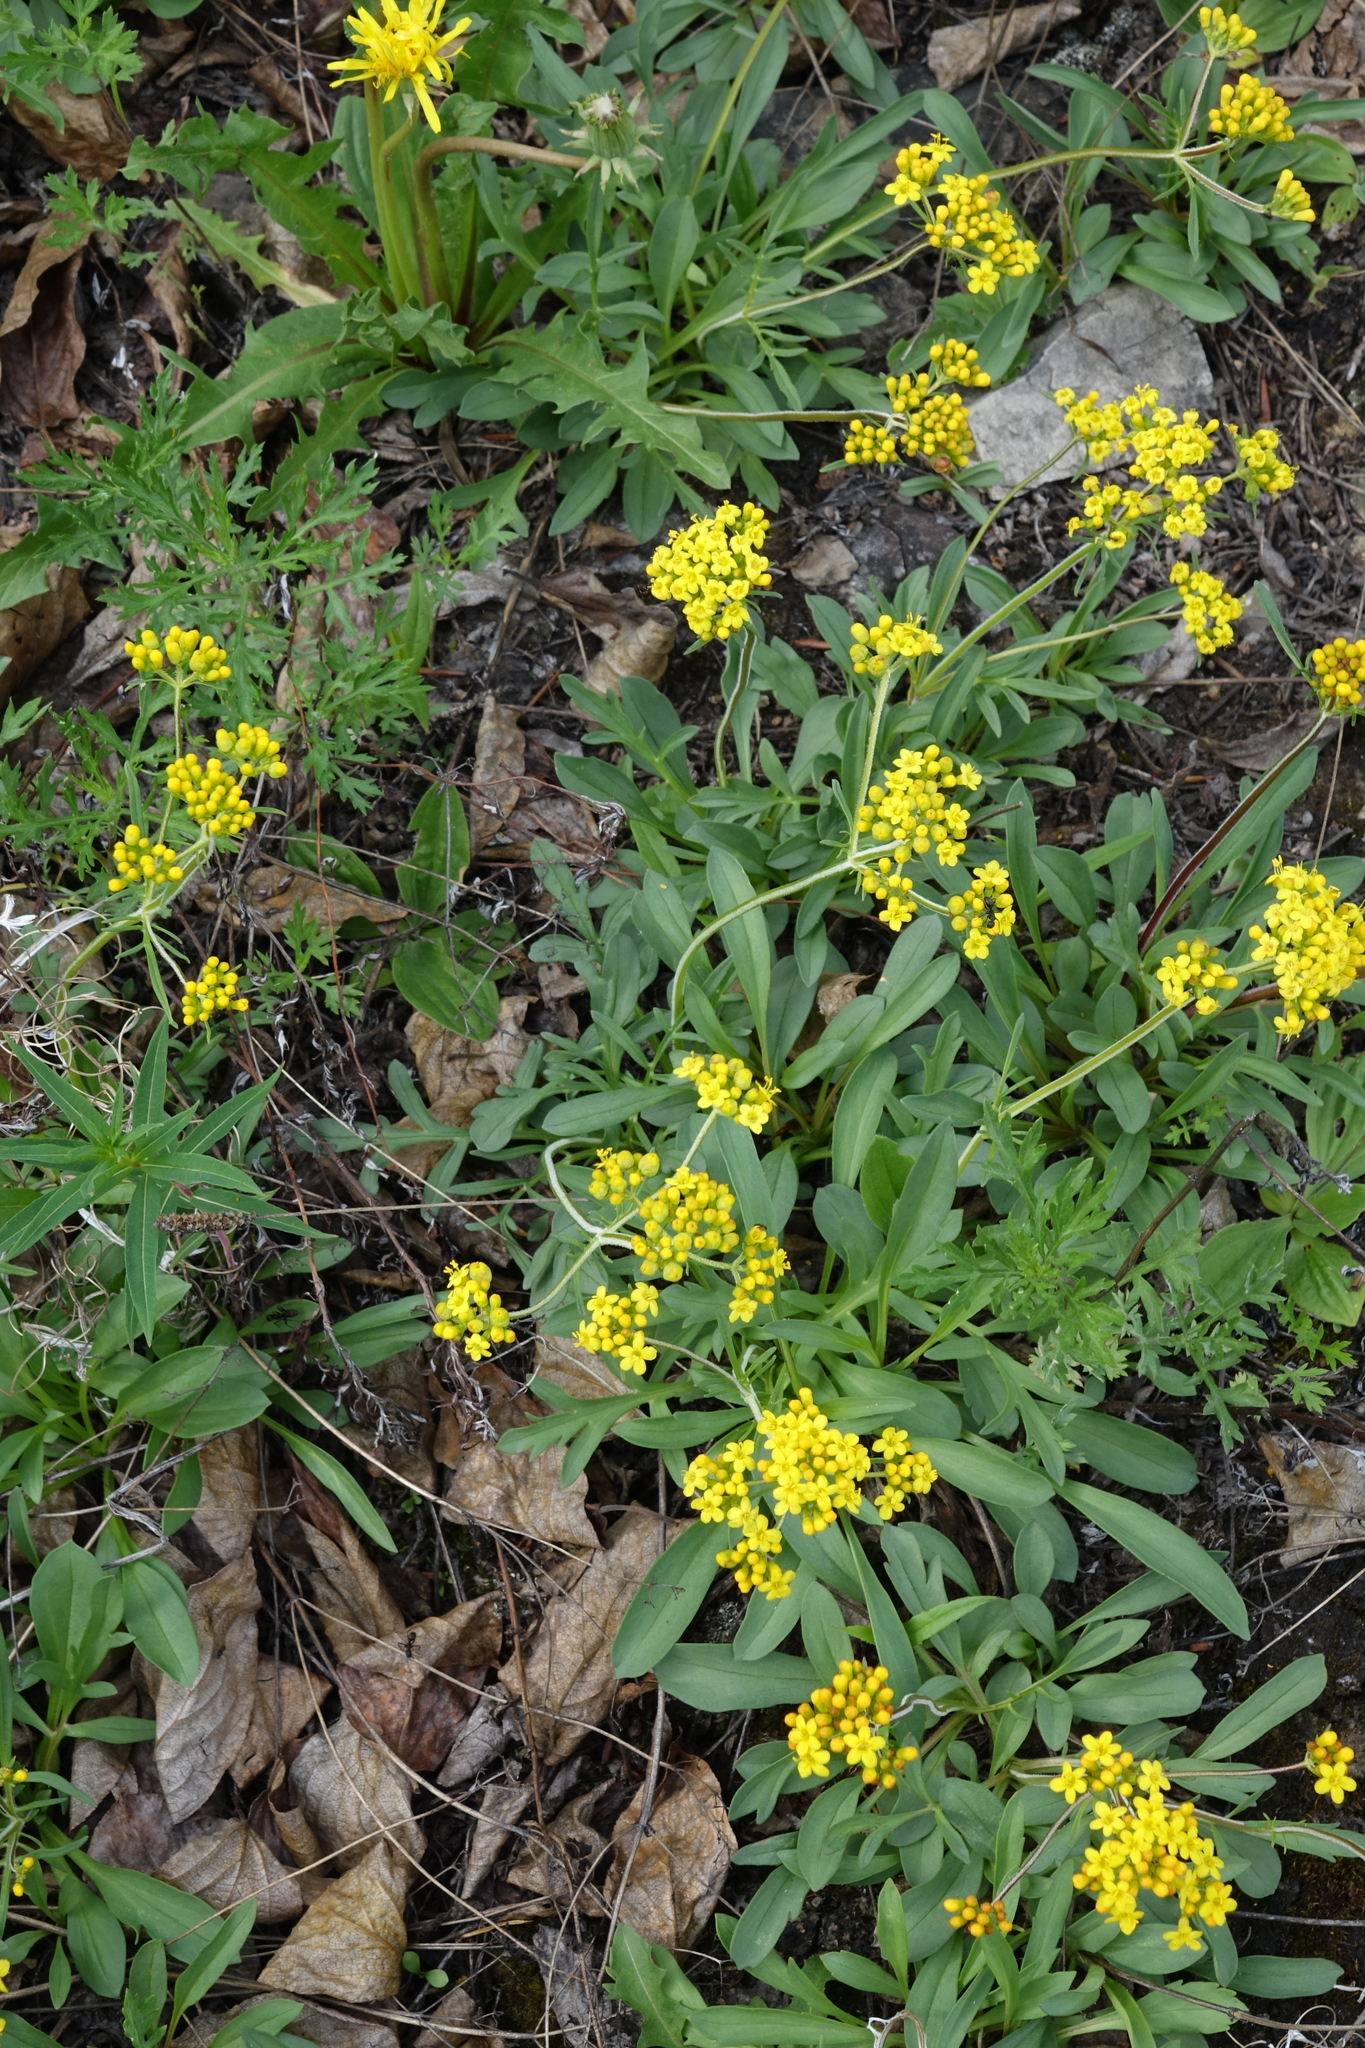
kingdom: Plantae
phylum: Tracheophyta
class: Magnoliopsida
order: Dipsacales
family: Caprifoliaceae
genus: Patrinia
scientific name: Patrinia sibirica
